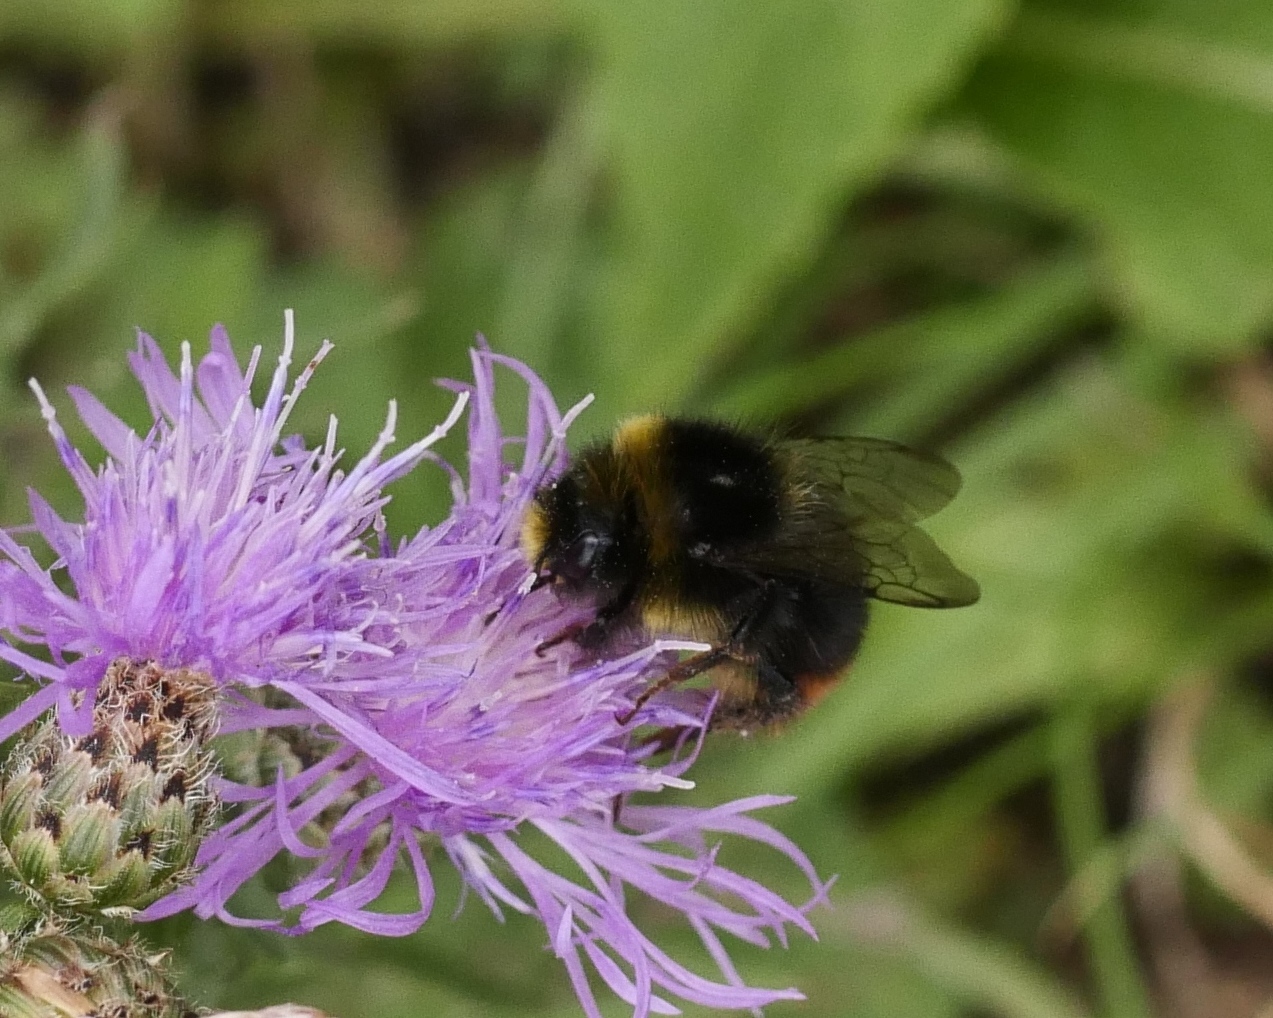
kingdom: Animalia
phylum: Arthropoda
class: Insecta
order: Hymenoptera
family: Apidae
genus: Bombus
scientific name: Bombus lapidarius
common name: Large red-tailed humble-bee
